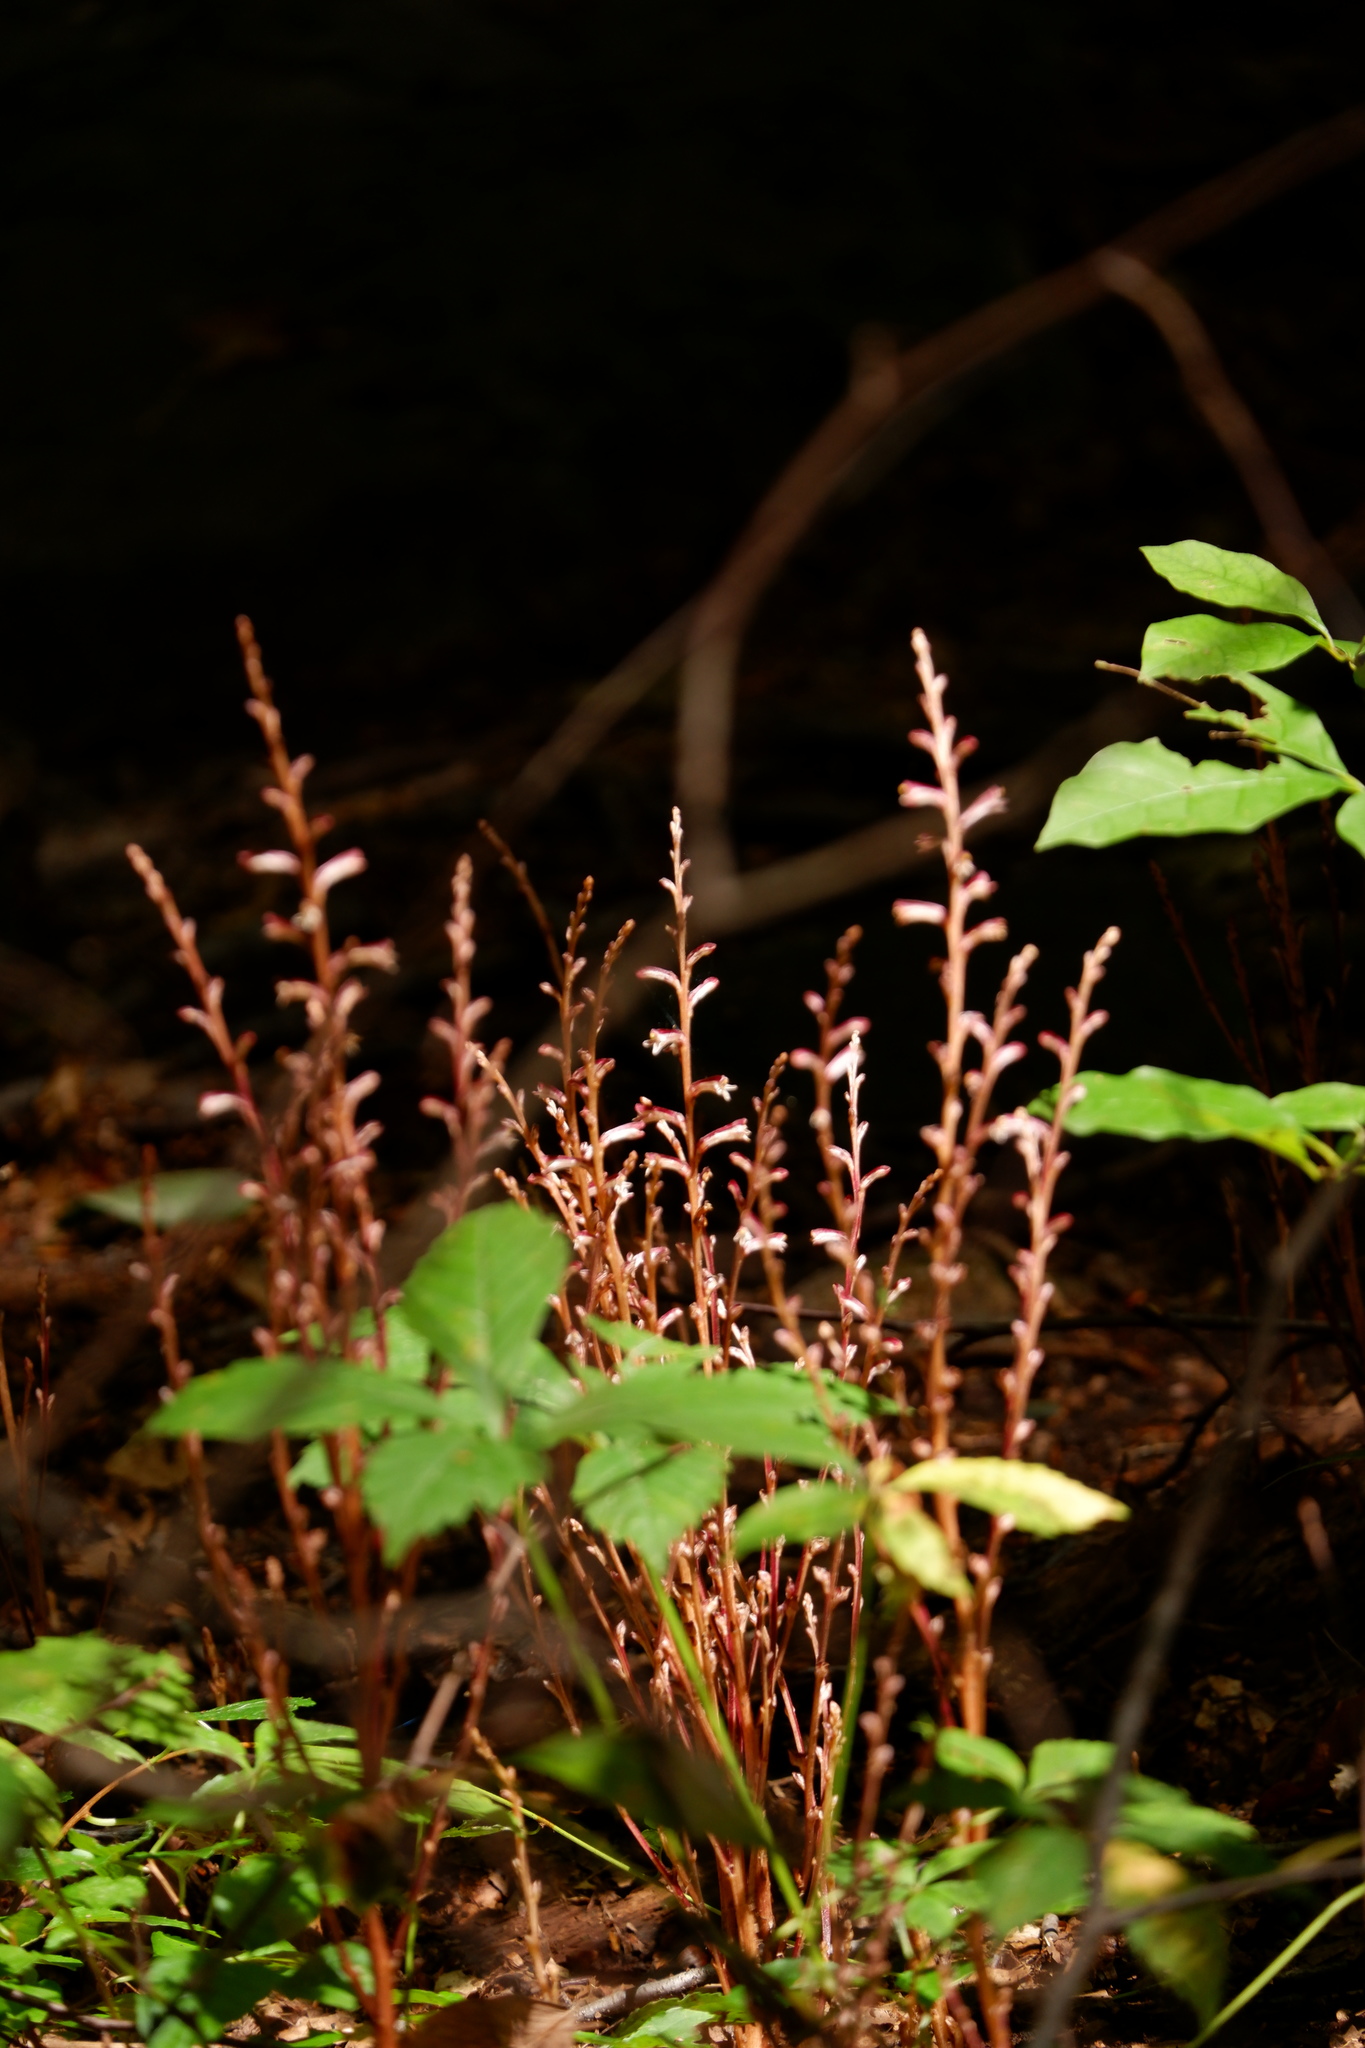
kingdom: Plantae
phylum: Tracheophyta
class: Magnoliopsida
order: Lamiales
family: Orobanchaceae
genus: Epifagus
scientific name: Epifagus virginiana
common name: Beechdrops
